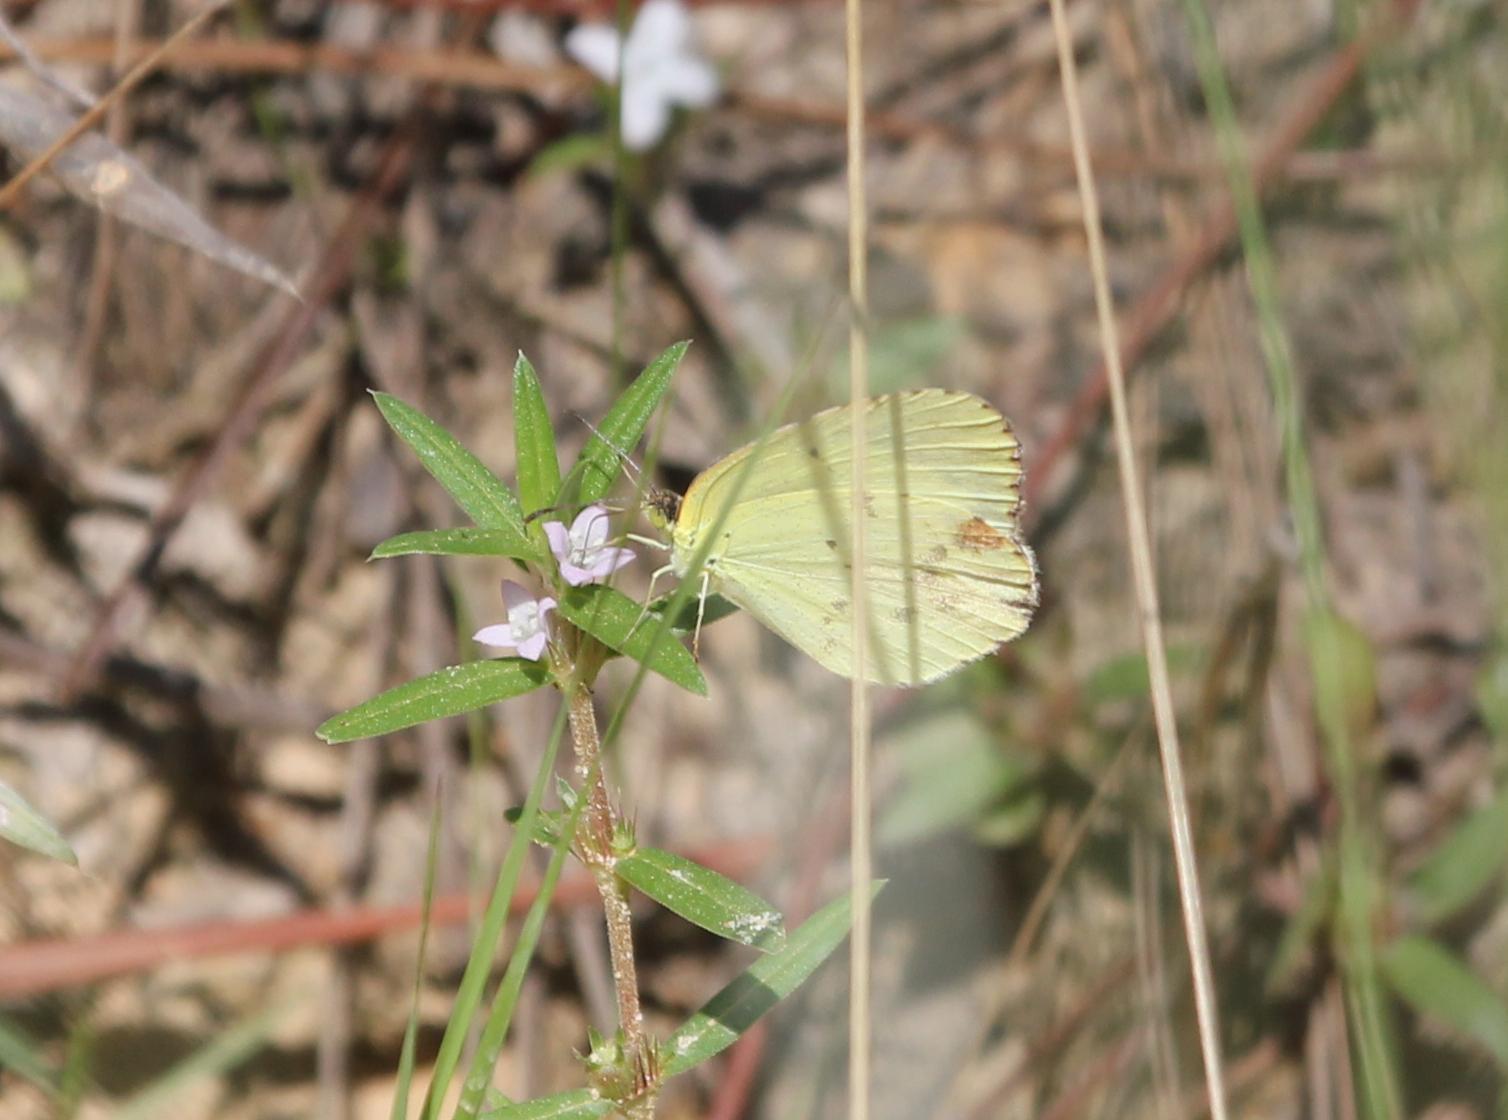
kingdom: Animalia
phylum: Arthropoda
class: Insecta
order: Lepidoptera
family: Pieridae
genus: Pyrisitia
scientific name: Pyrisitia lisa
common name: Little yellow
